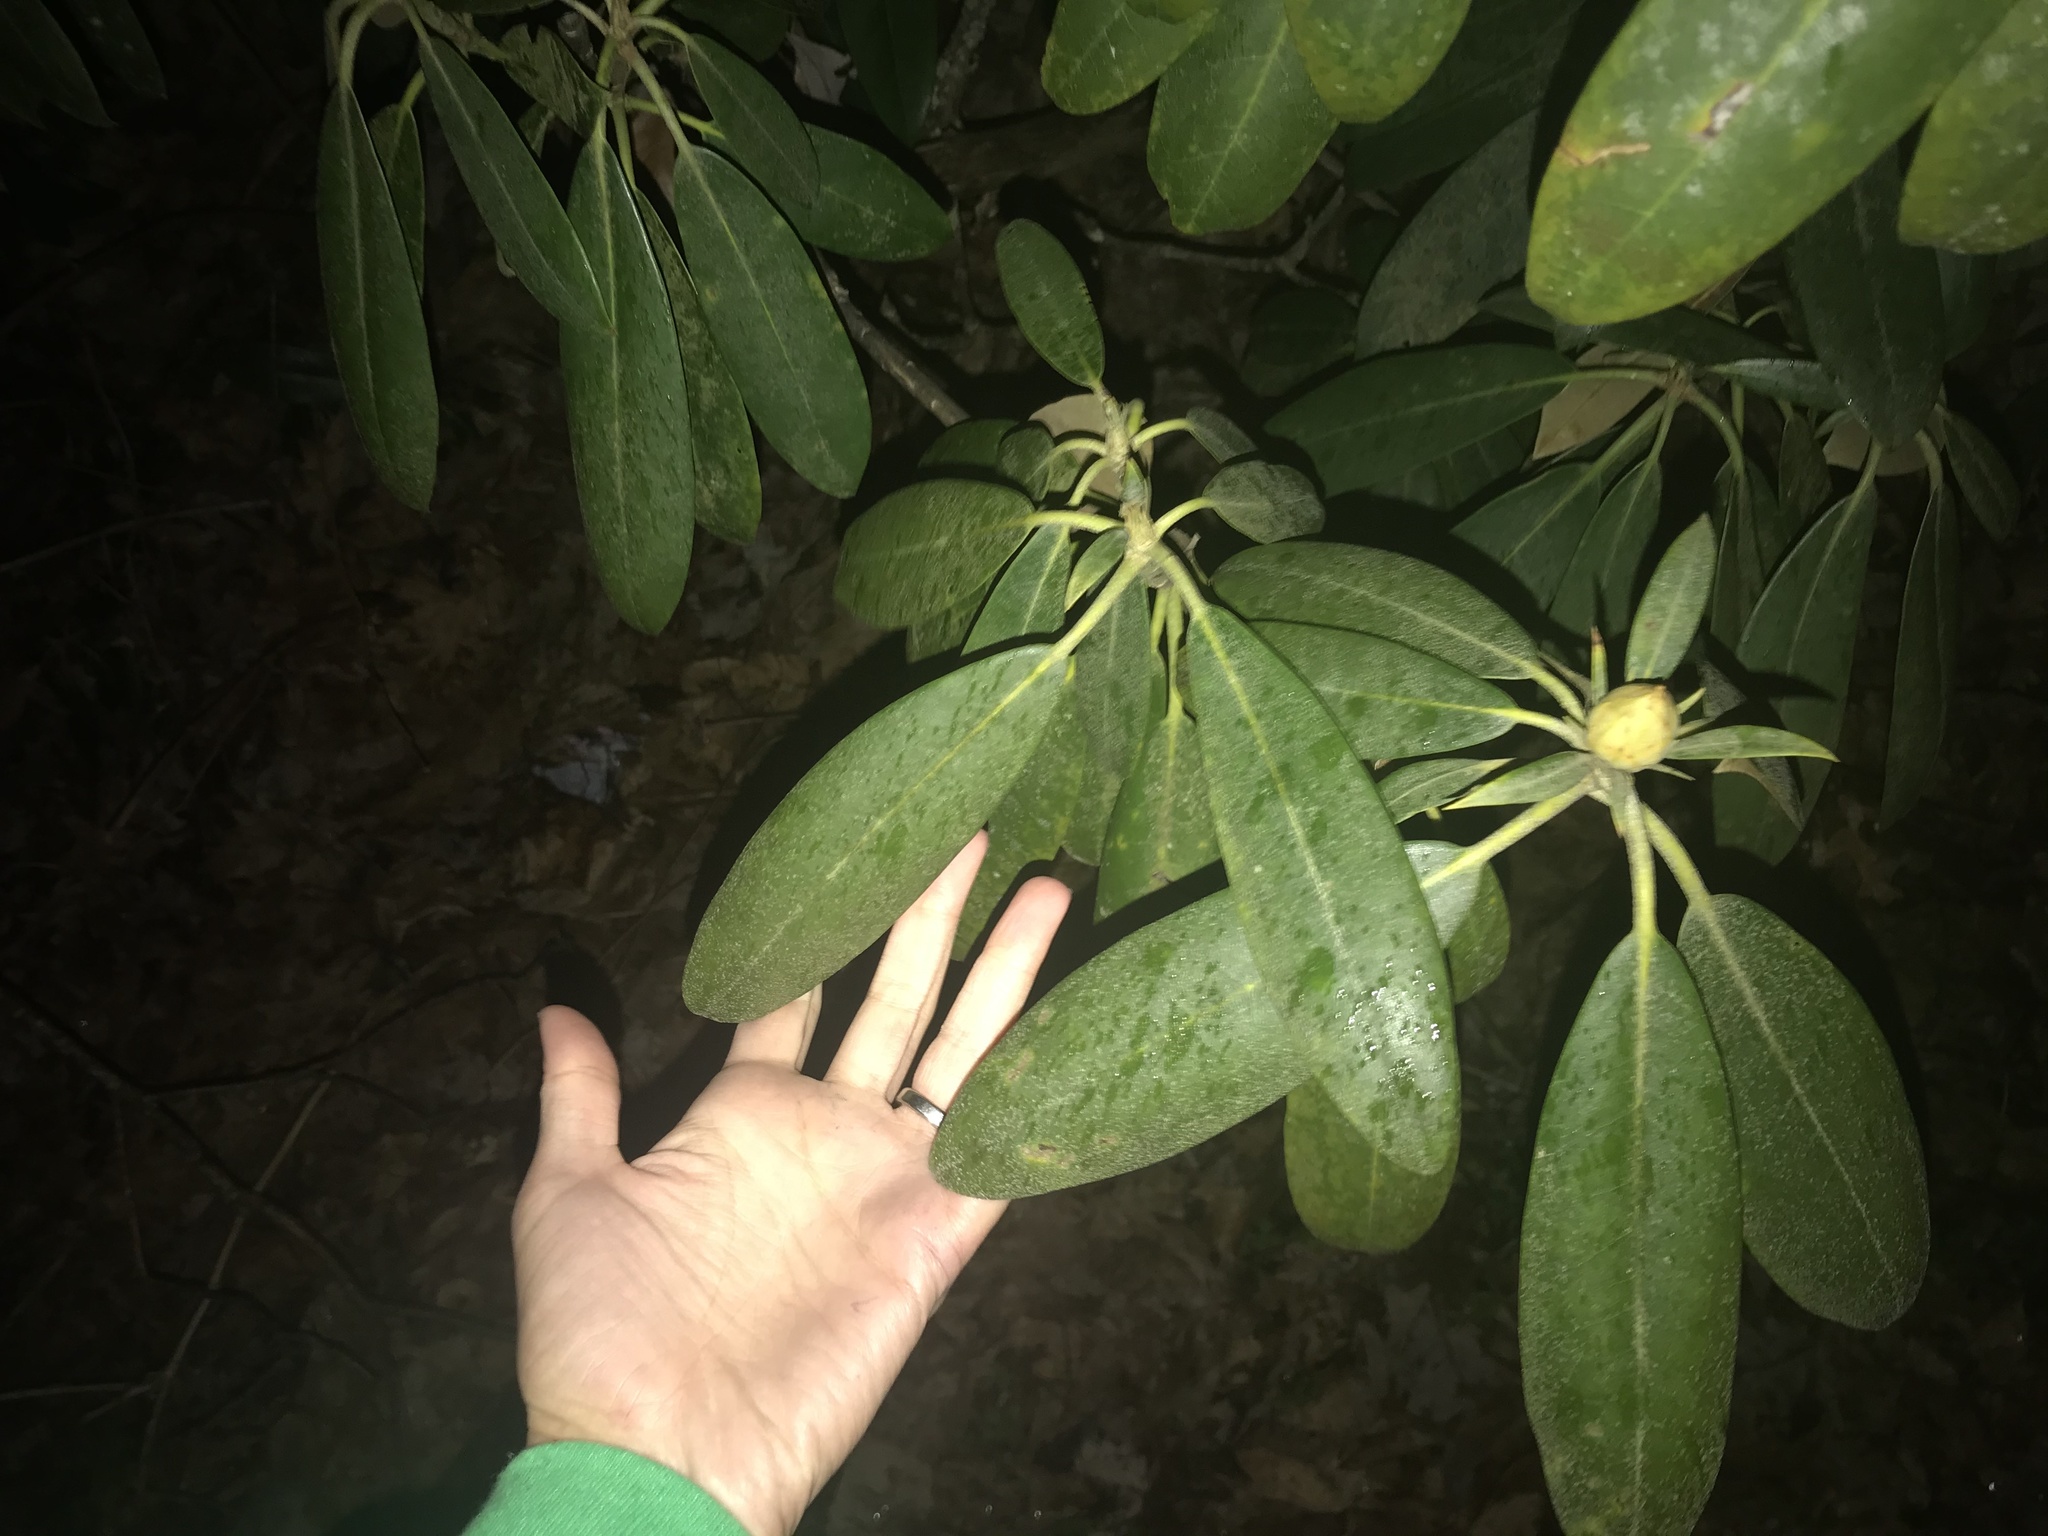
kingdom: Plantae
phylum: Tracheophyta
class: Magnoliopsida
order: Ericales
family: Ericaceae
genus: Rhododendron
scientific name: Rhododendron maximum
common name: Great rhododendron
